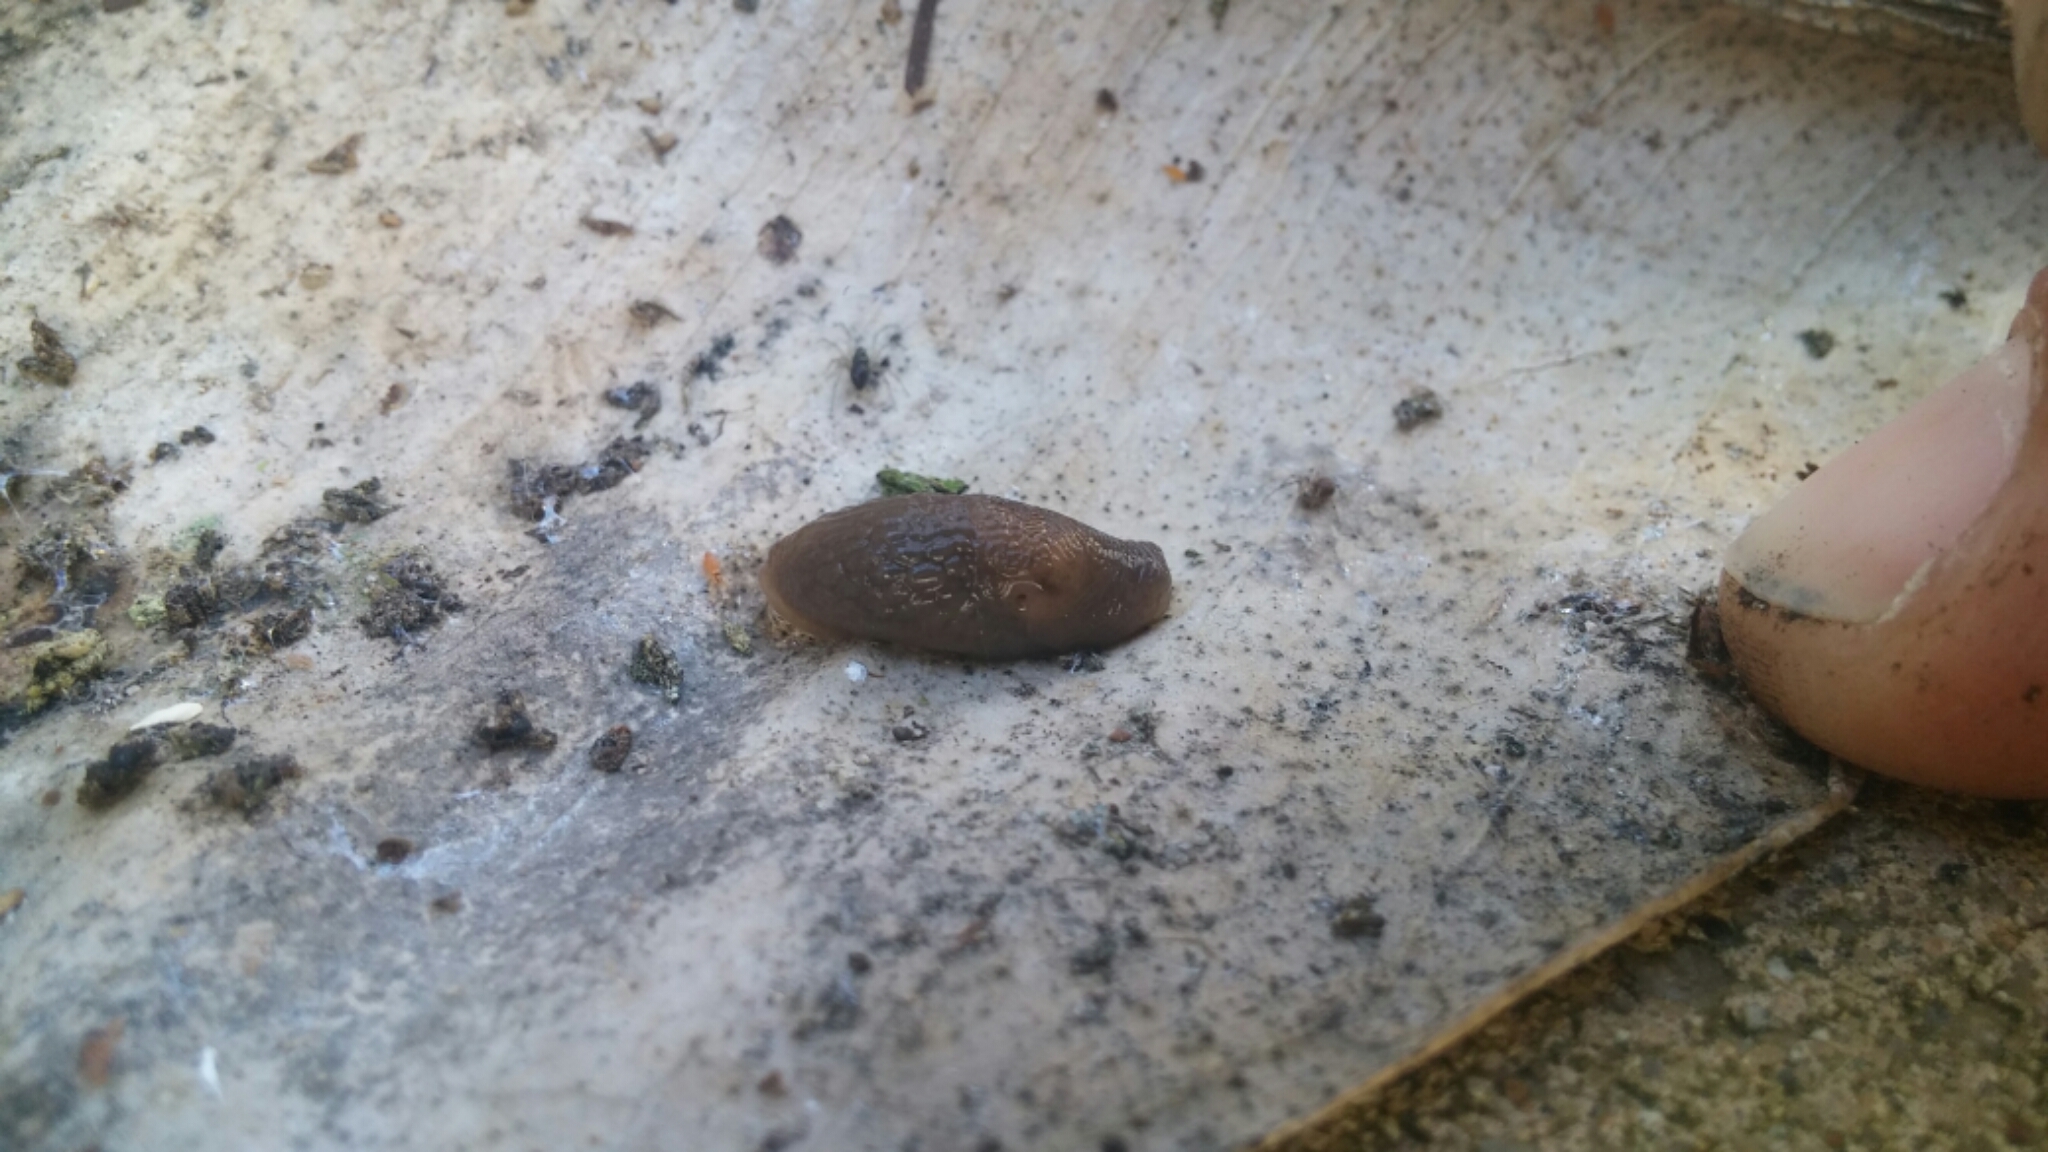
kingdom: Animalia
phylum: Mollusca
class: Gastropoda
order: Stylommatophora
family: Agriolimacidae
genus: Deroceras
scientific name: Deroceras laeve
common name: Marsh slug
